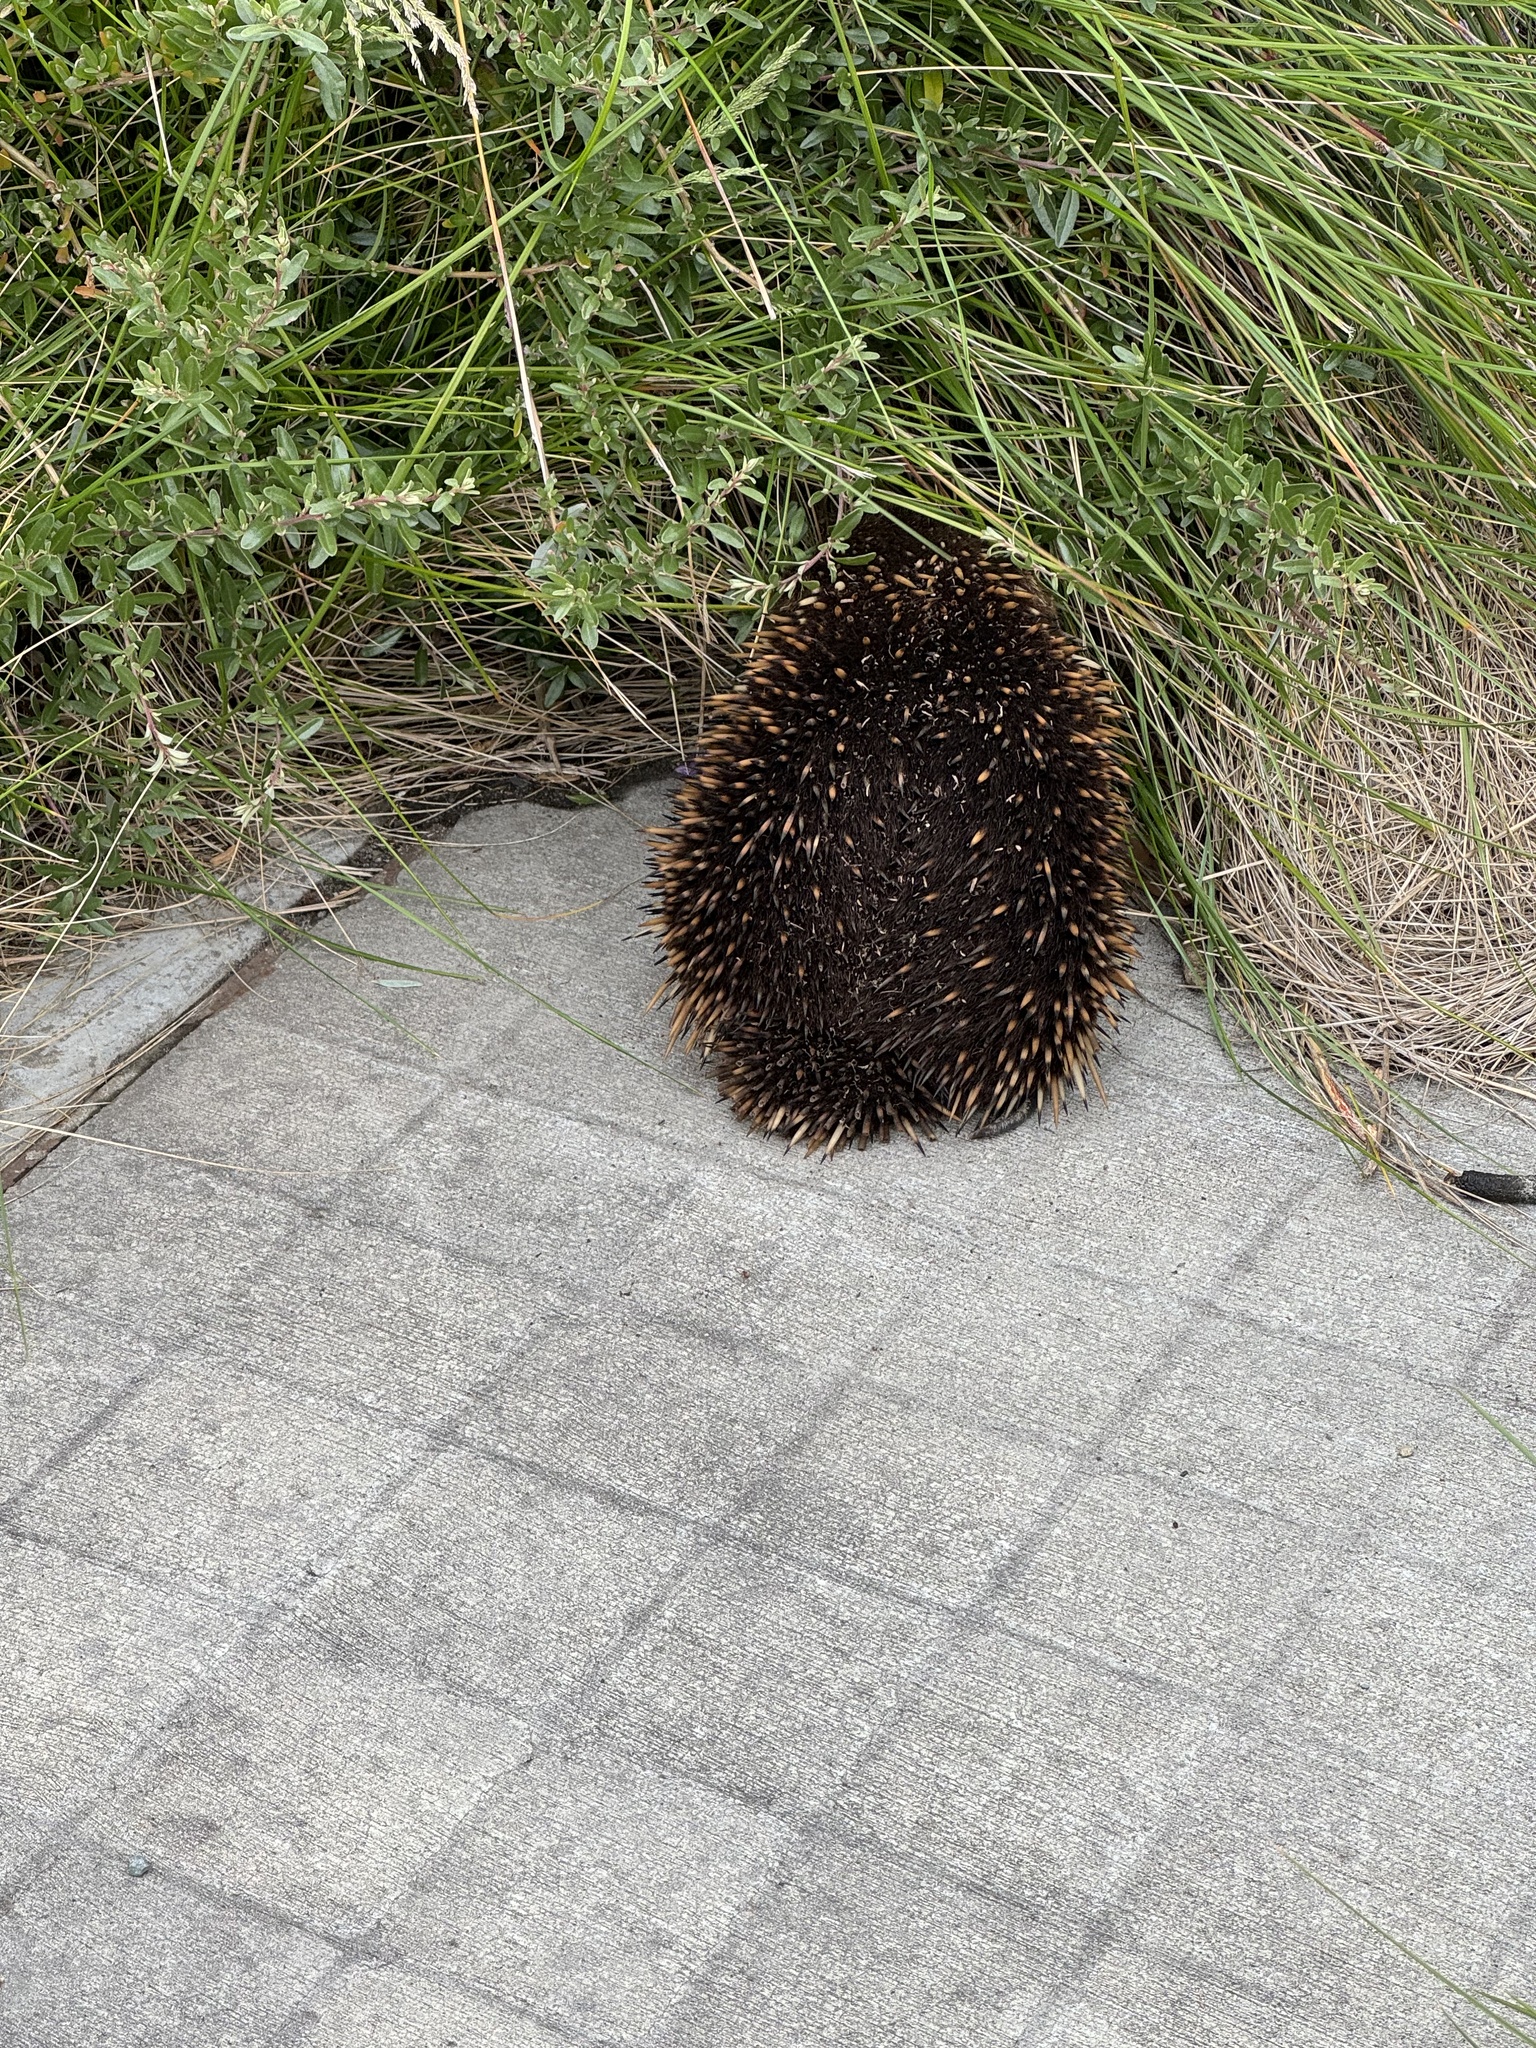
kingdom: Animalia
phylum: Chordata
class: Mammalia
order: Monotremata
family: Tachyglossidae
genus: Tachyglossus
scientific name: Tachyglossus aculeatus
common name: Short-beaked echidna
